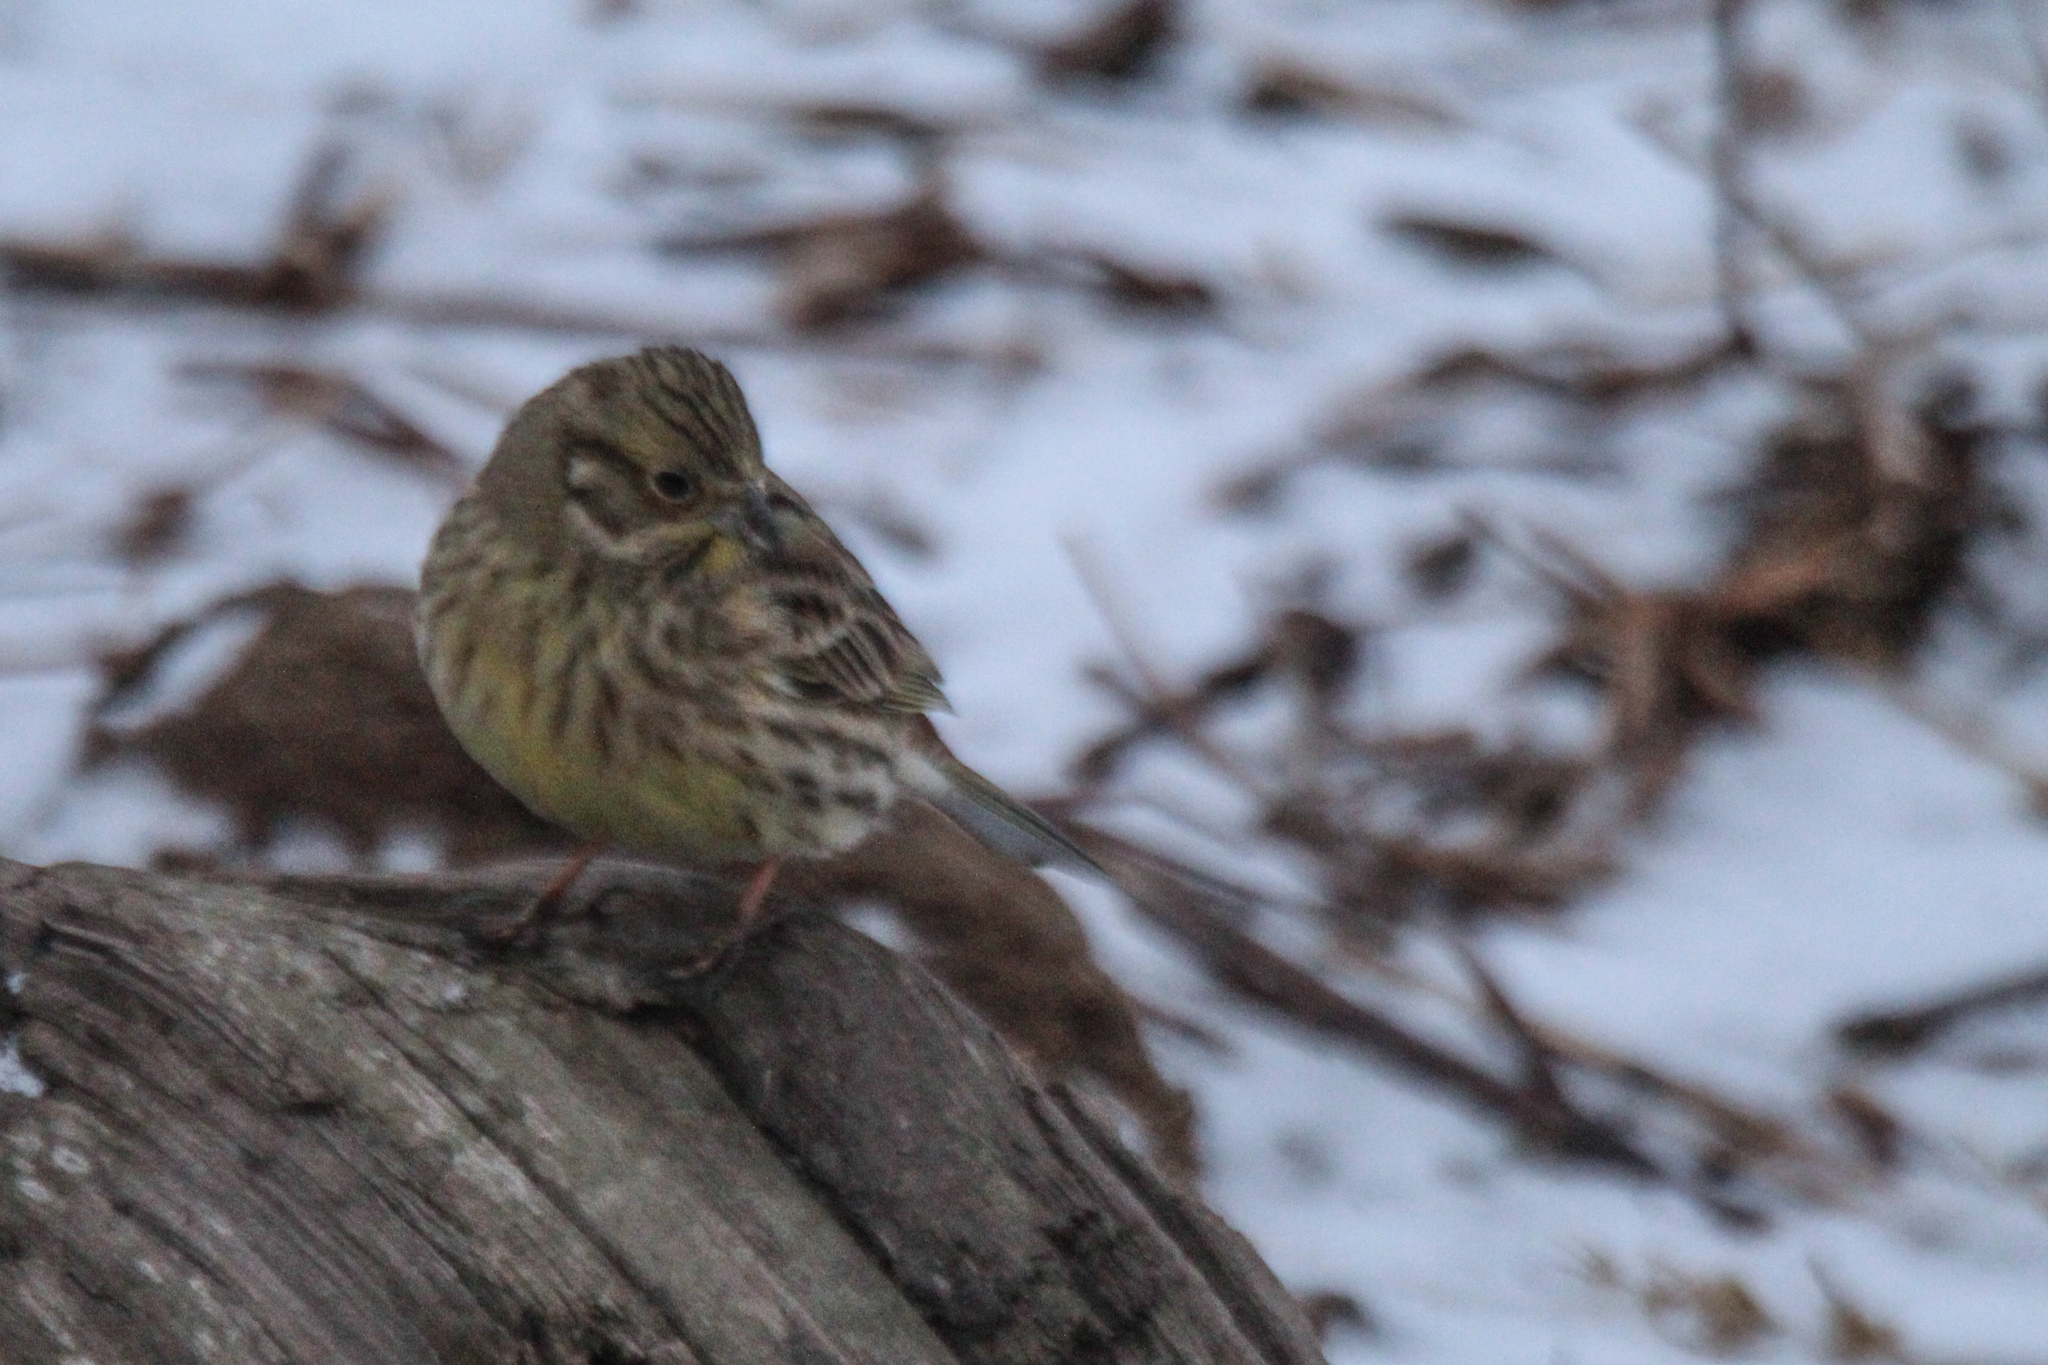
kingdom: Animalia
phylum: Chordata
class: Aves
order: Passeriformes
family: Emberizidae
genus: Emberiza
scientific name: Emberiza citrinella
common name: Yellowhammer
